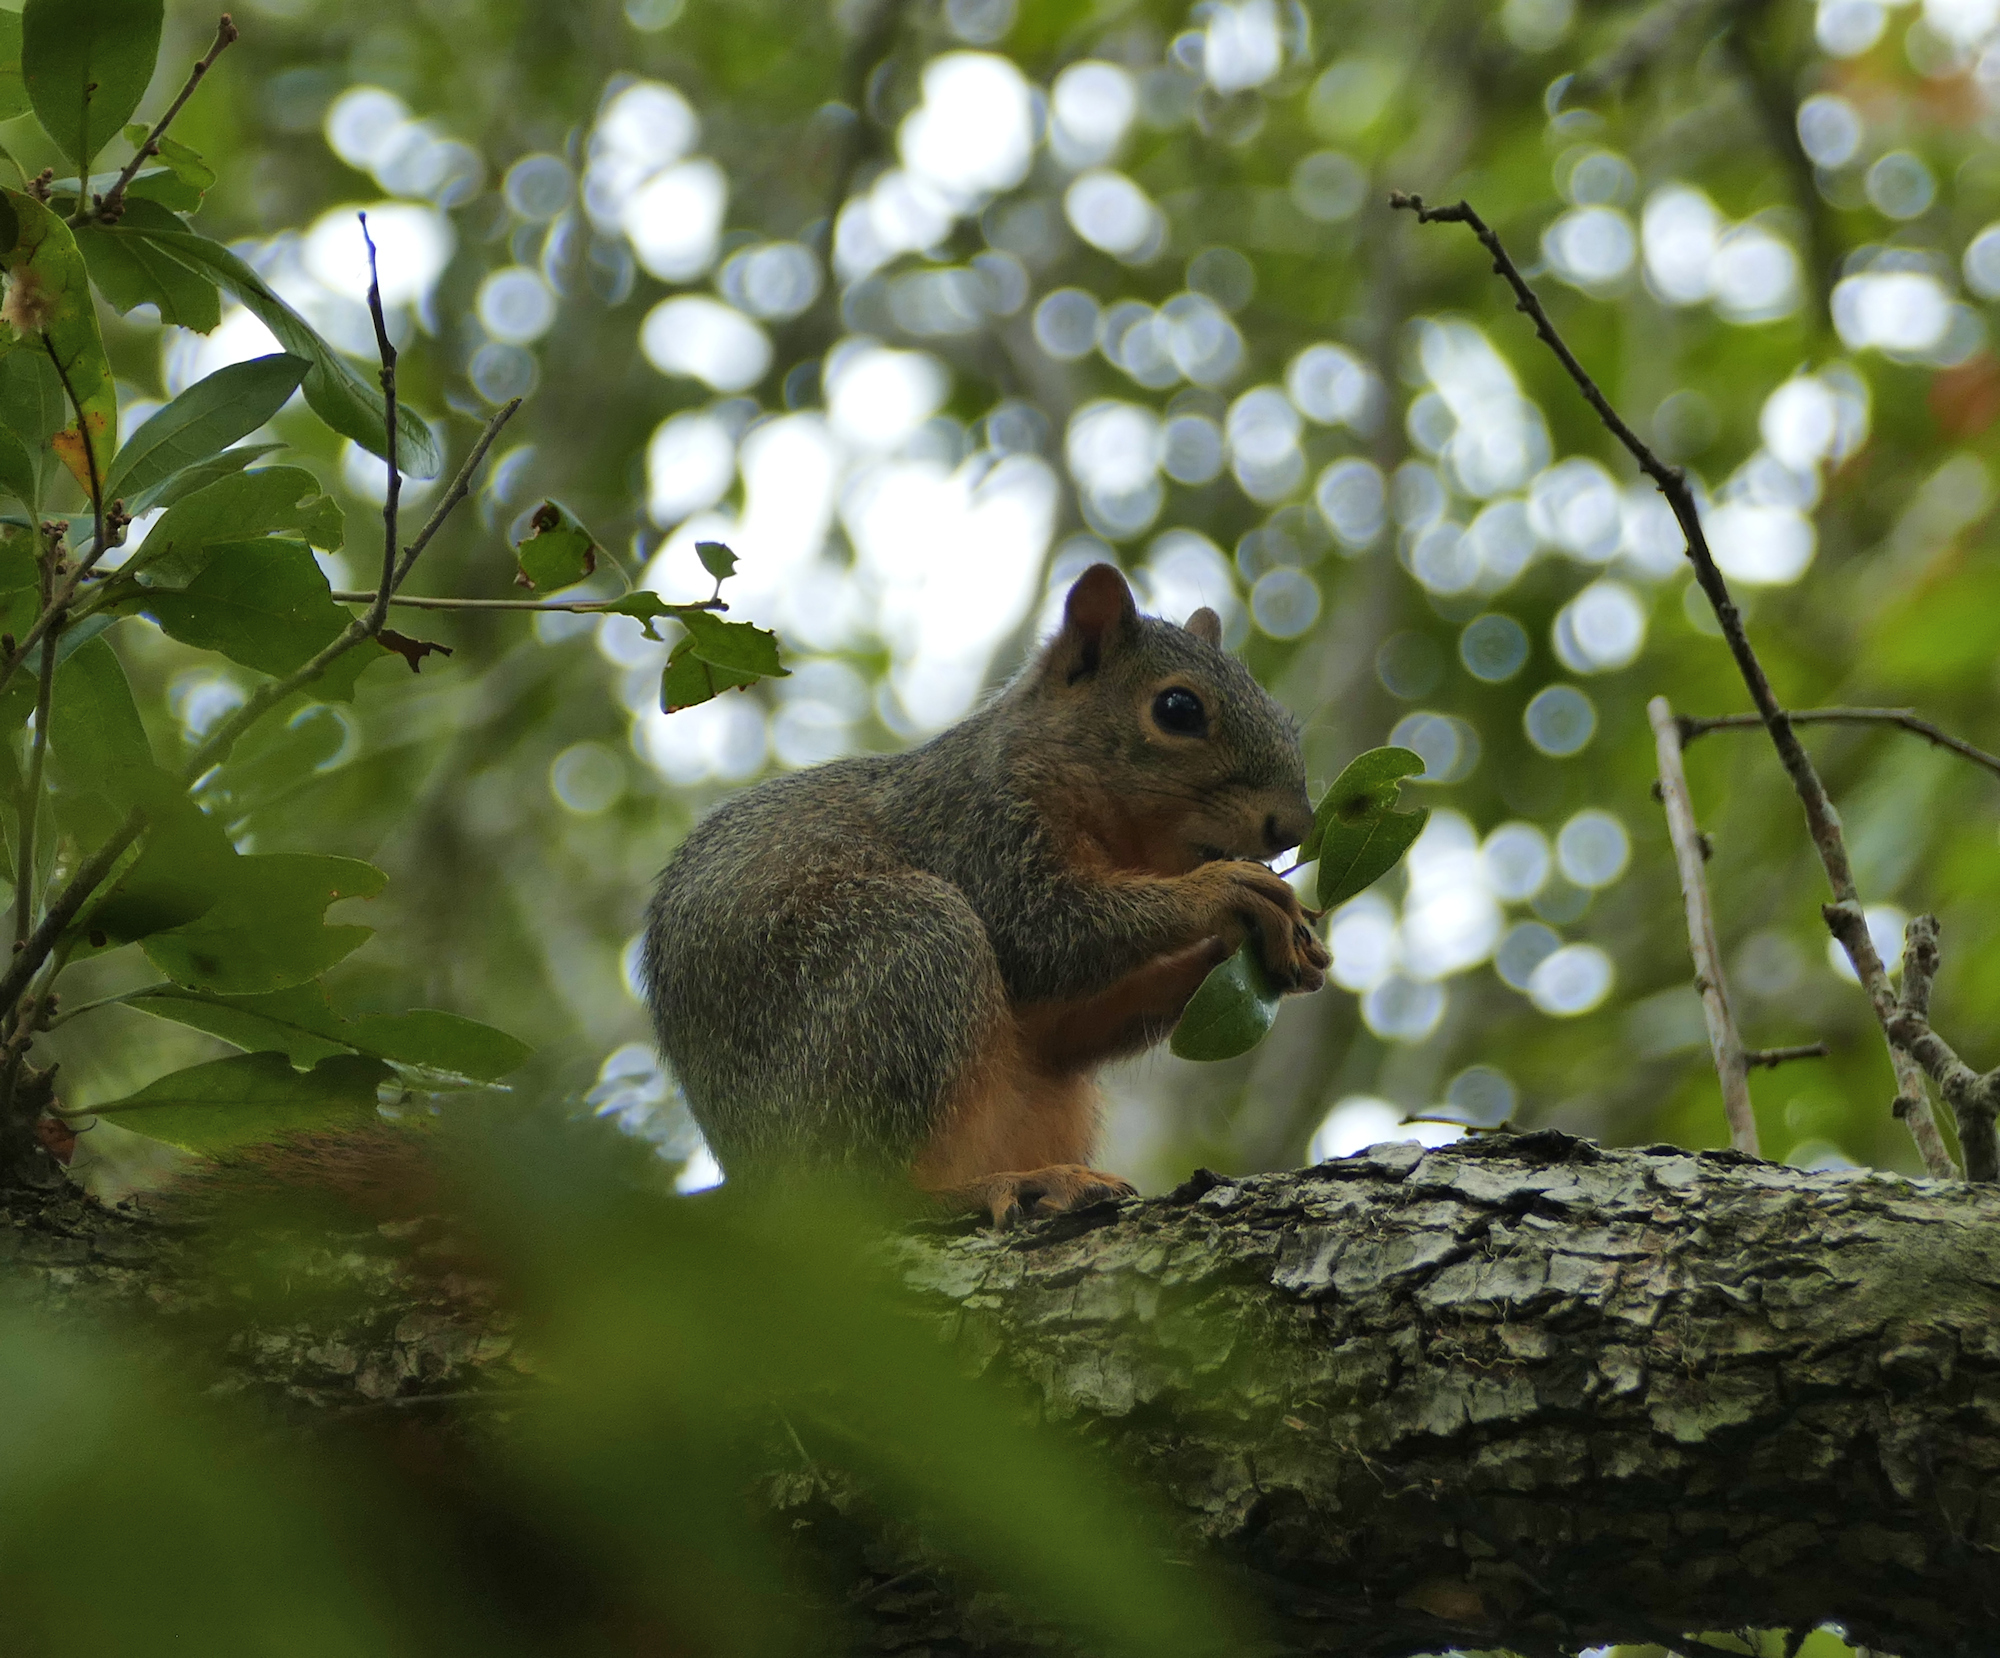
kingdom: Animalia
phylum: Chordata
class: Mammalia
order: Rodentia
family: Sciuridae
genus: Sciurus
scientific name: Sciurus niger
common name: Fox squirrel
